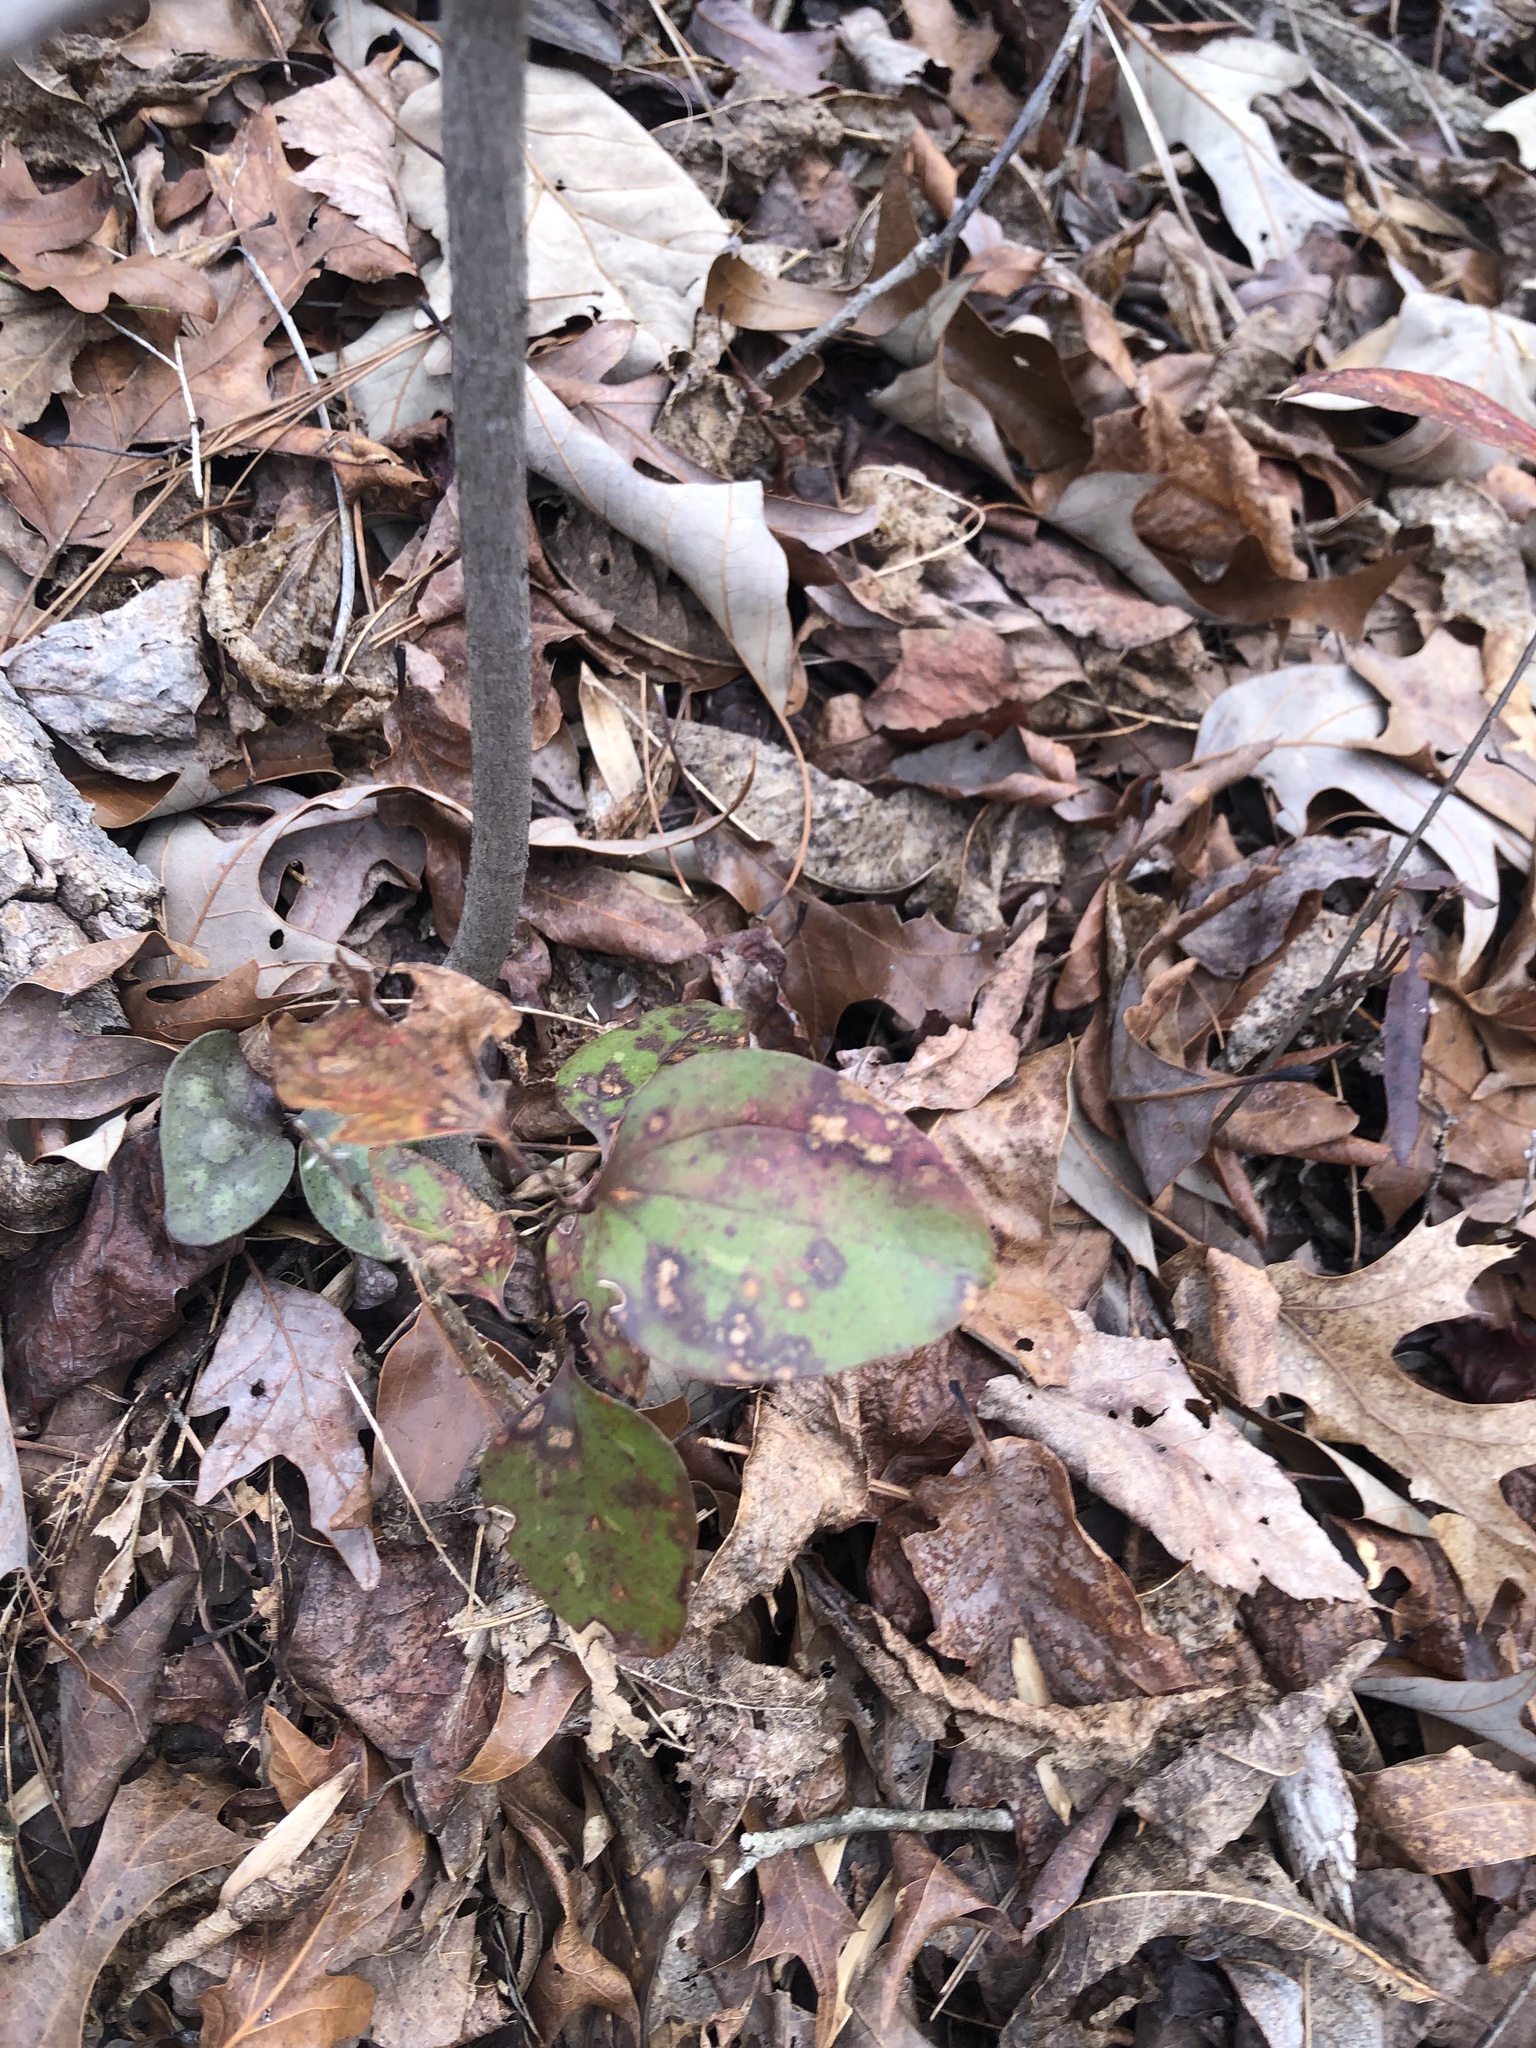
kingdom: Plantae
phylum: Tracheophyta
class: Liliopsida
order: Liliales
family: Smilacaceae
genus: Smilax
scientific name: Smilax glauca
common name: Cat greenbrier
